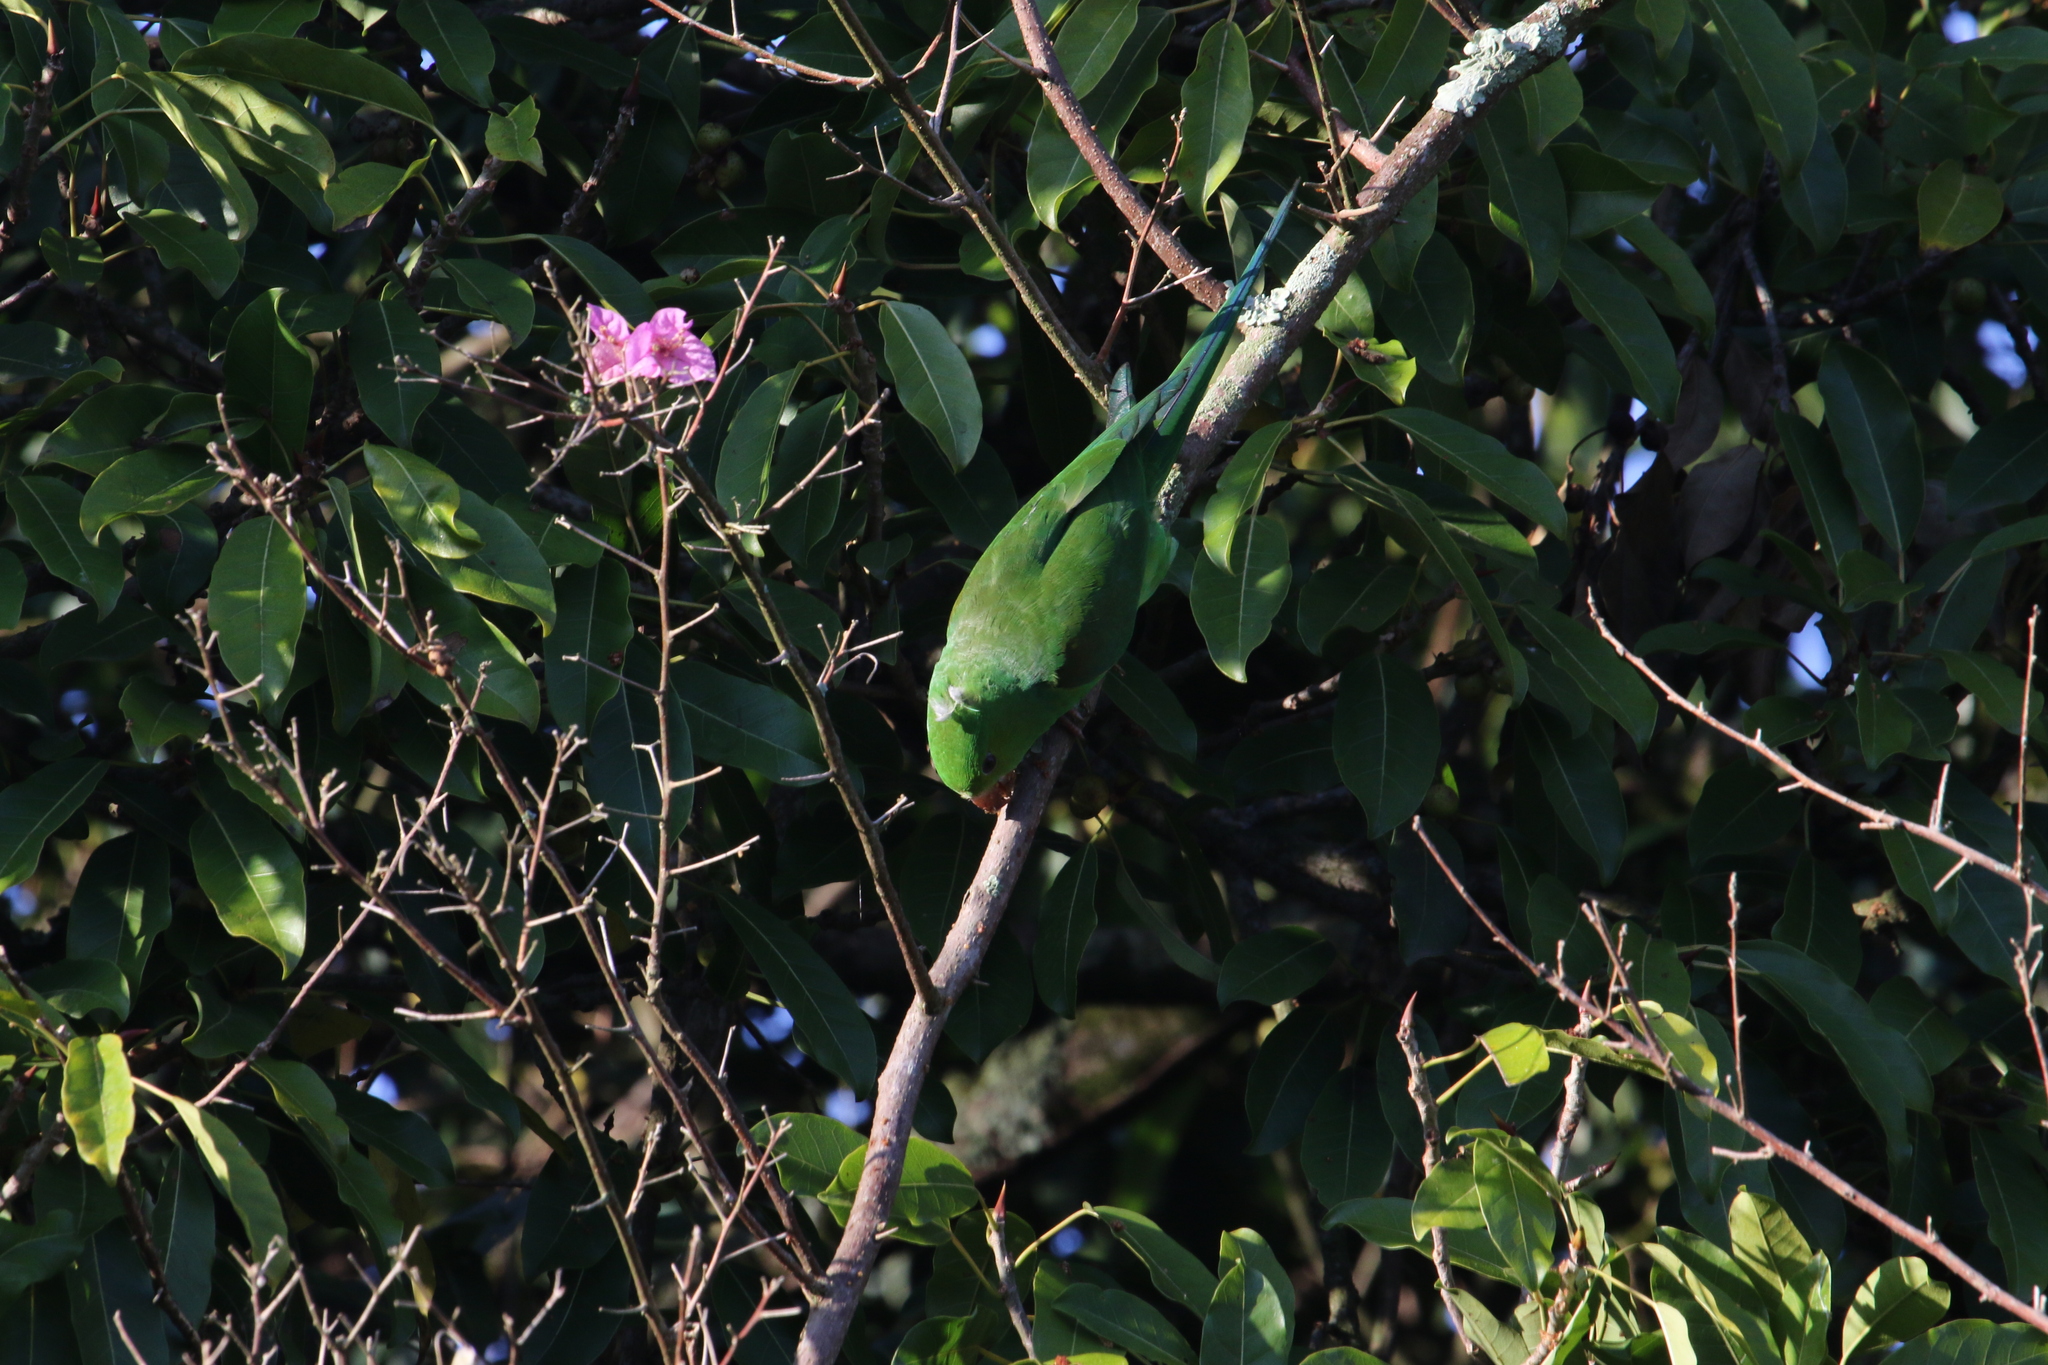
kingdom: Animalia
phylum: Chordata
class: Aves
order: Psittaciformes
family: Psittacidae
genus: Brotogeris
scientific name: Brotogeris tirica
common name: Plain parakeet
